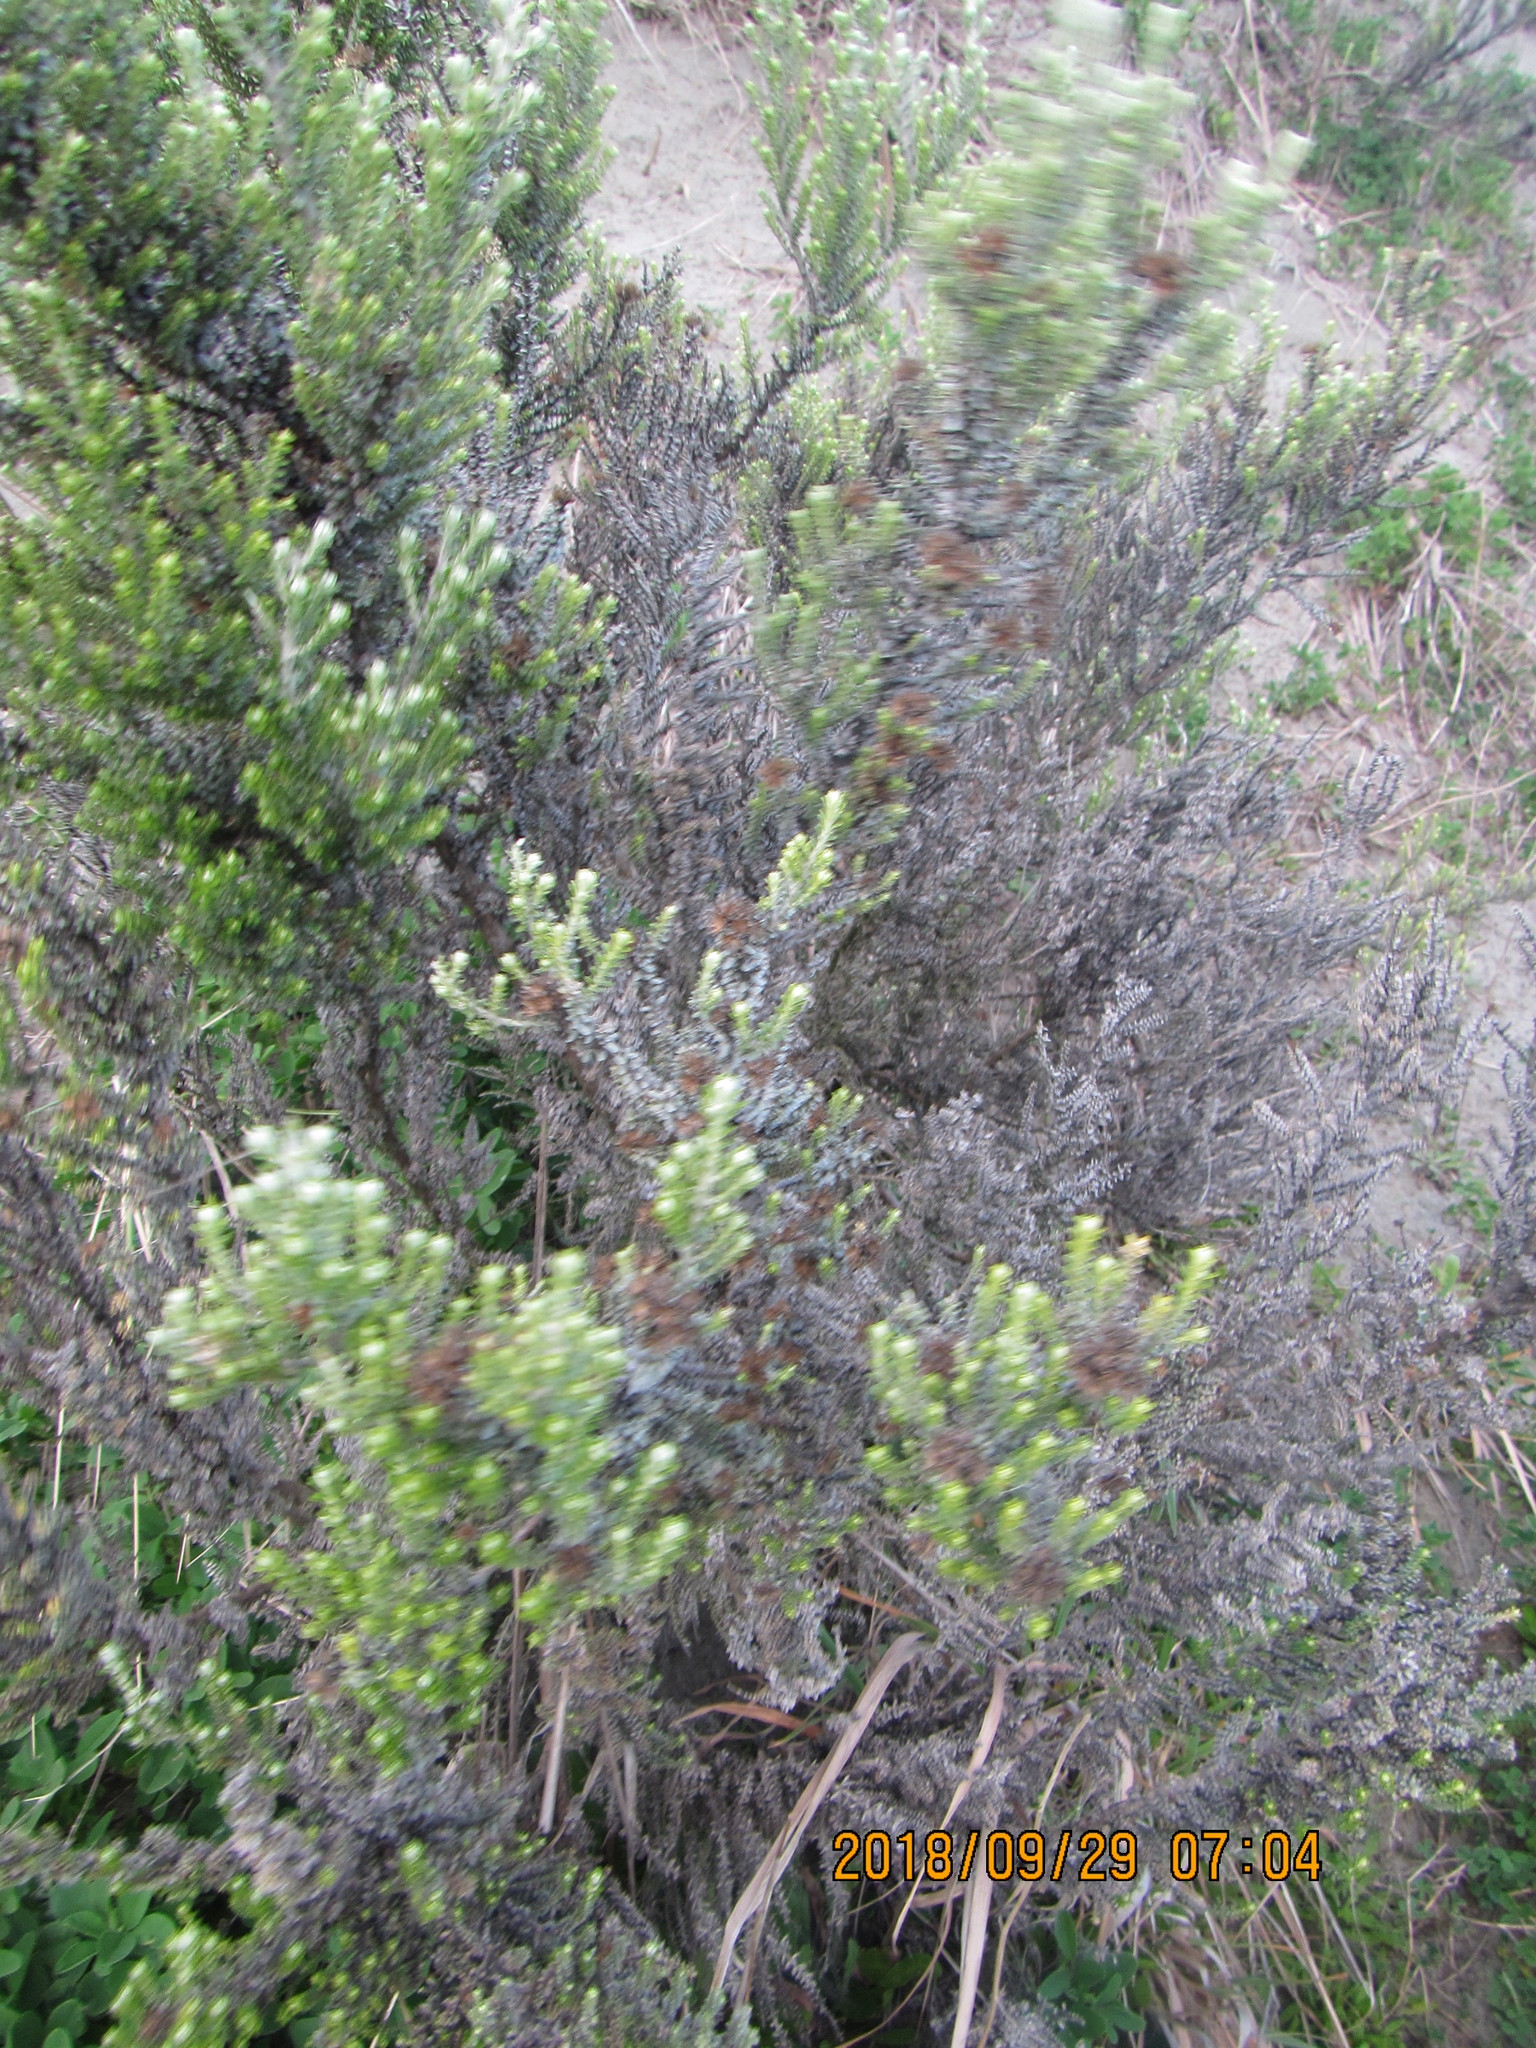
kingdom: Plantae
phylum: Tracheophyta
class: Magnoliopsida
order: Asterales
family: Asteraceae
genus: Ozothamnus
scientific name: Ozothamnus leptophyllus
